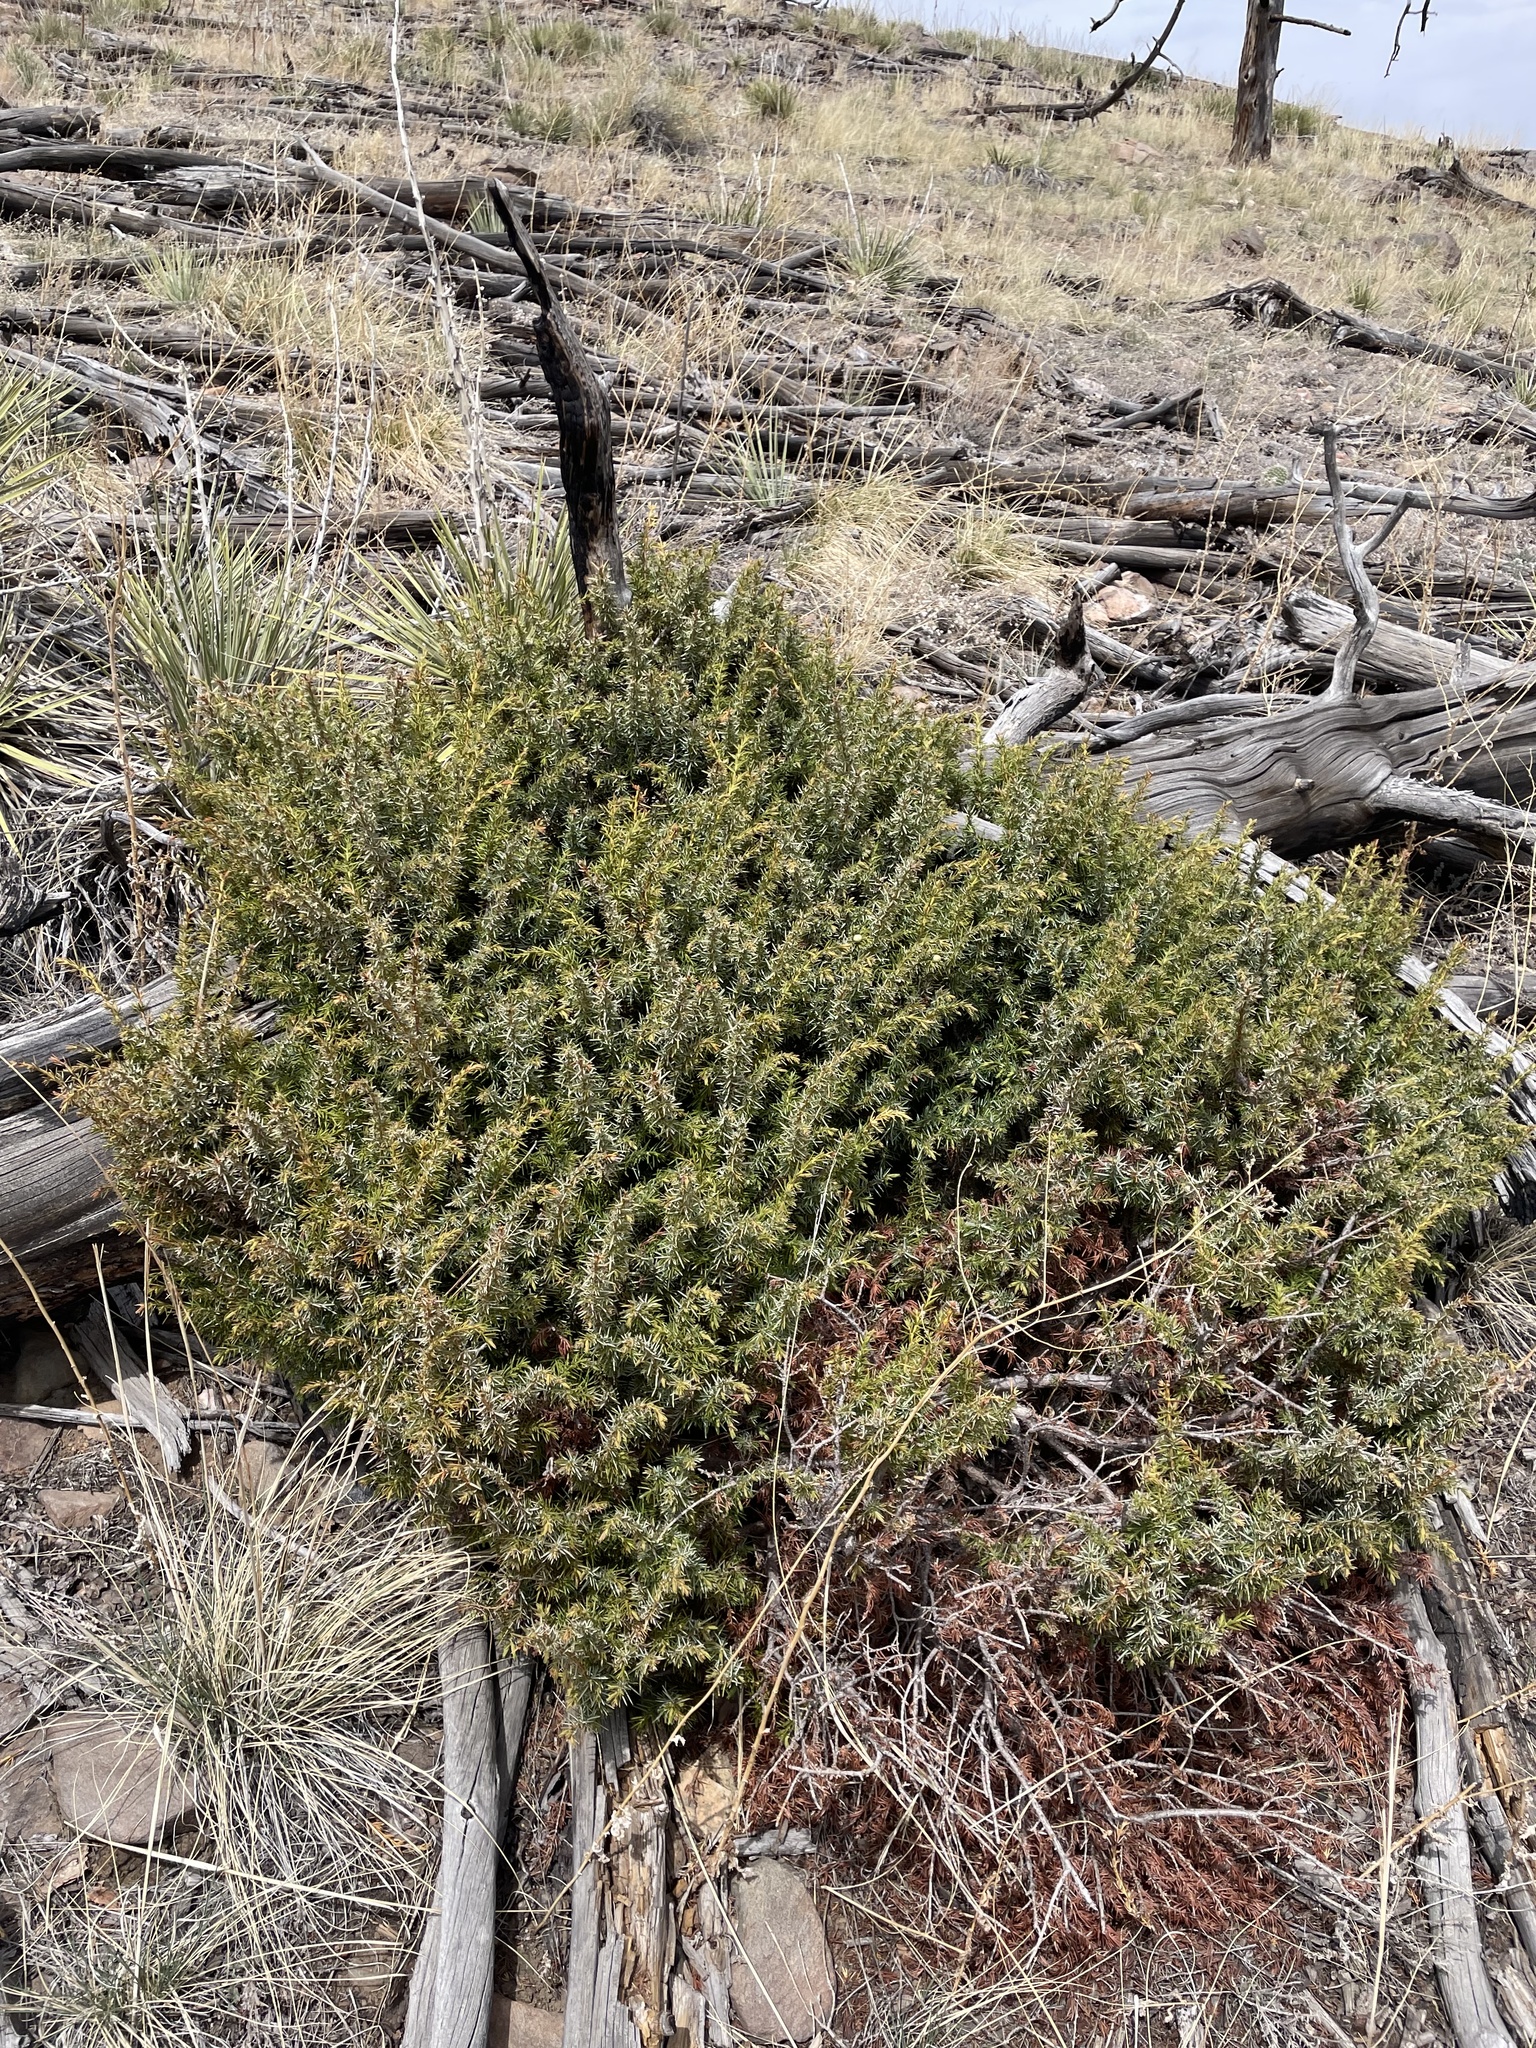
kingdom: Plantae
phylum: Tracheophyta
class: Pinopsida
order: Pinales
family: Cupressaceae
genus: Juniperus
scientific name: Juniperus communis
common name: Common juniper
